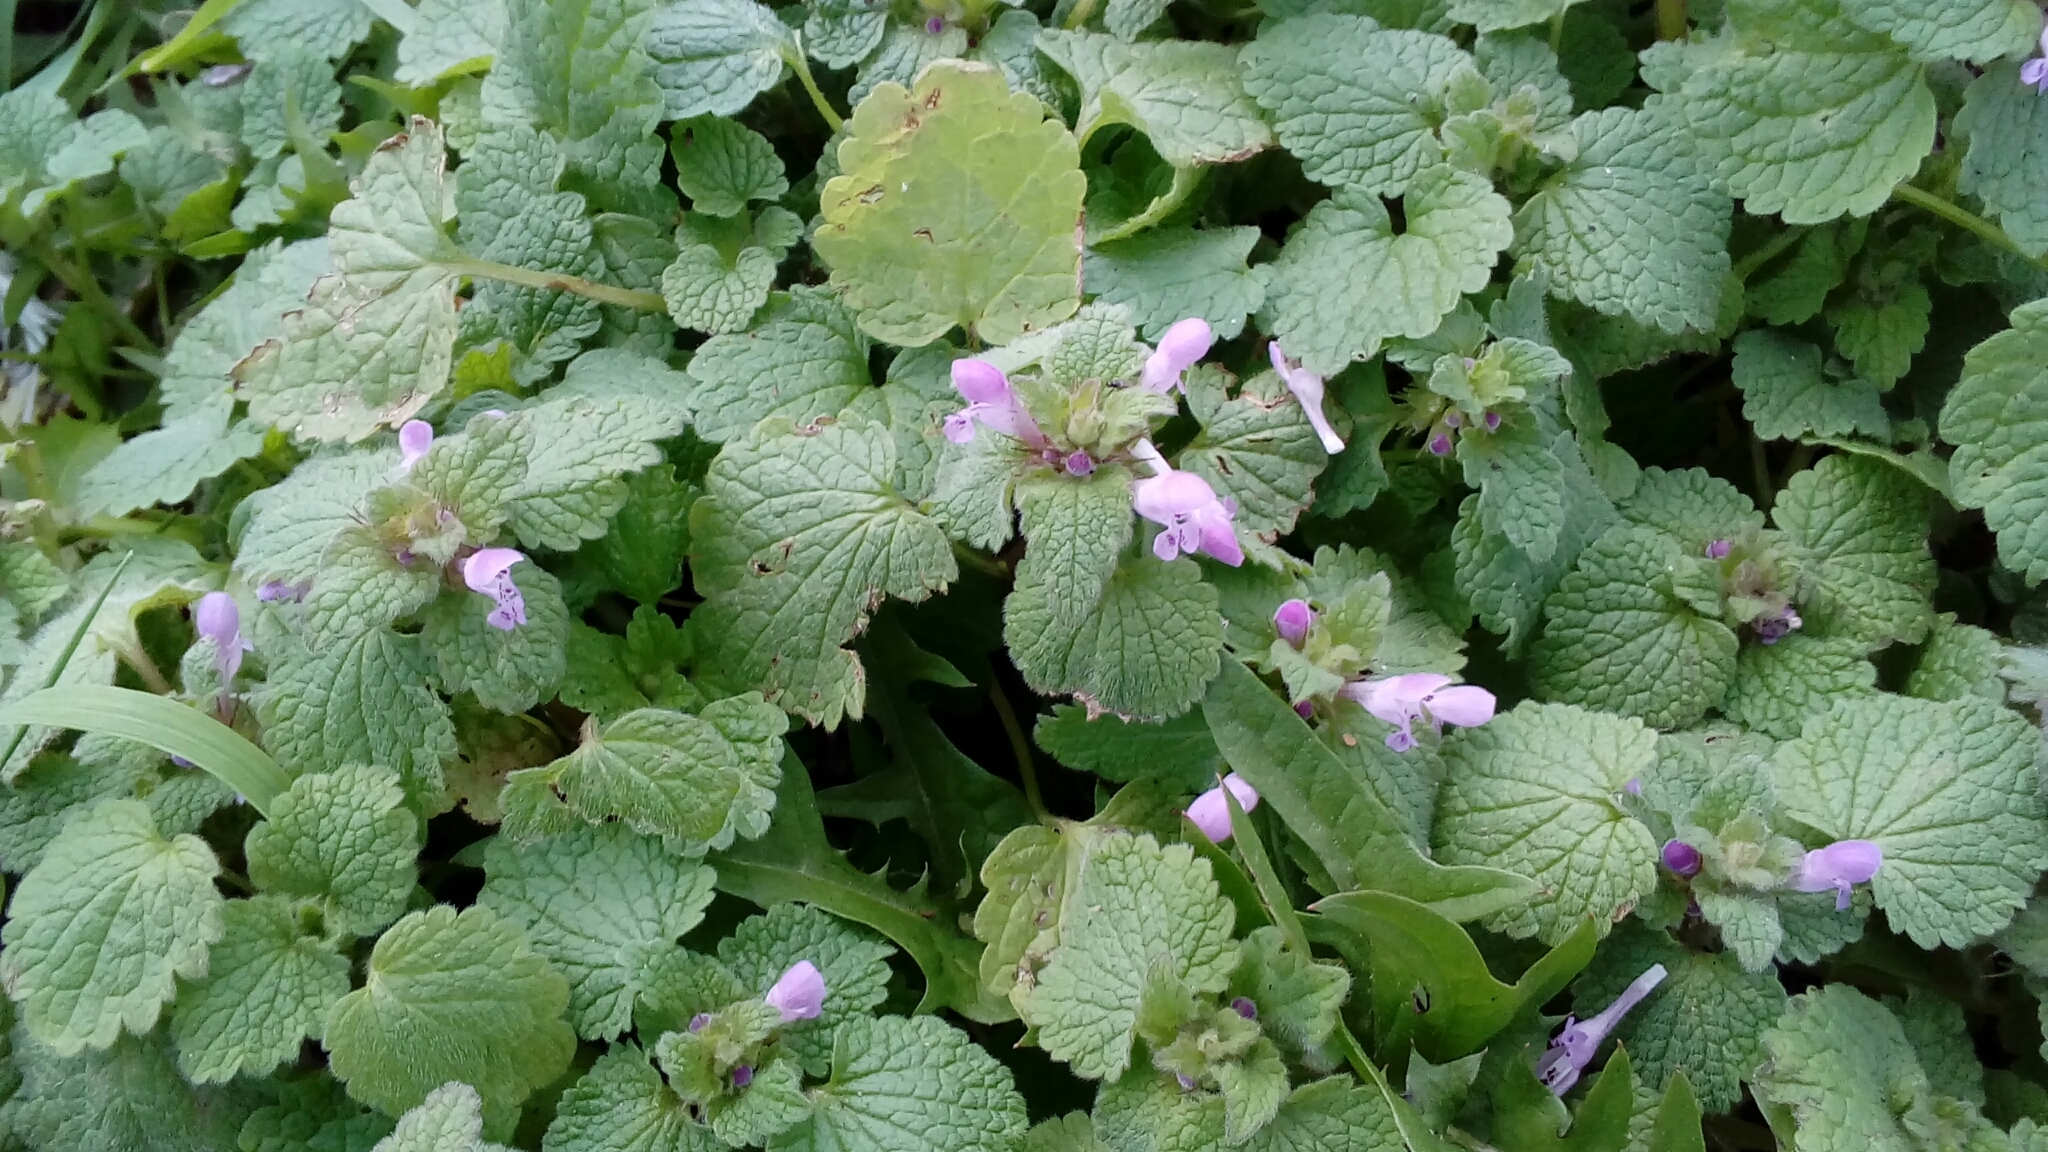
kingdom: Plantae
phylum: Tracheophyta
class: Magnoliopsida
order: Lamiales
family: Lamiaceae
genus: Lamium
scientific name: Lamium purpureum
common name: Red dead-nettle
